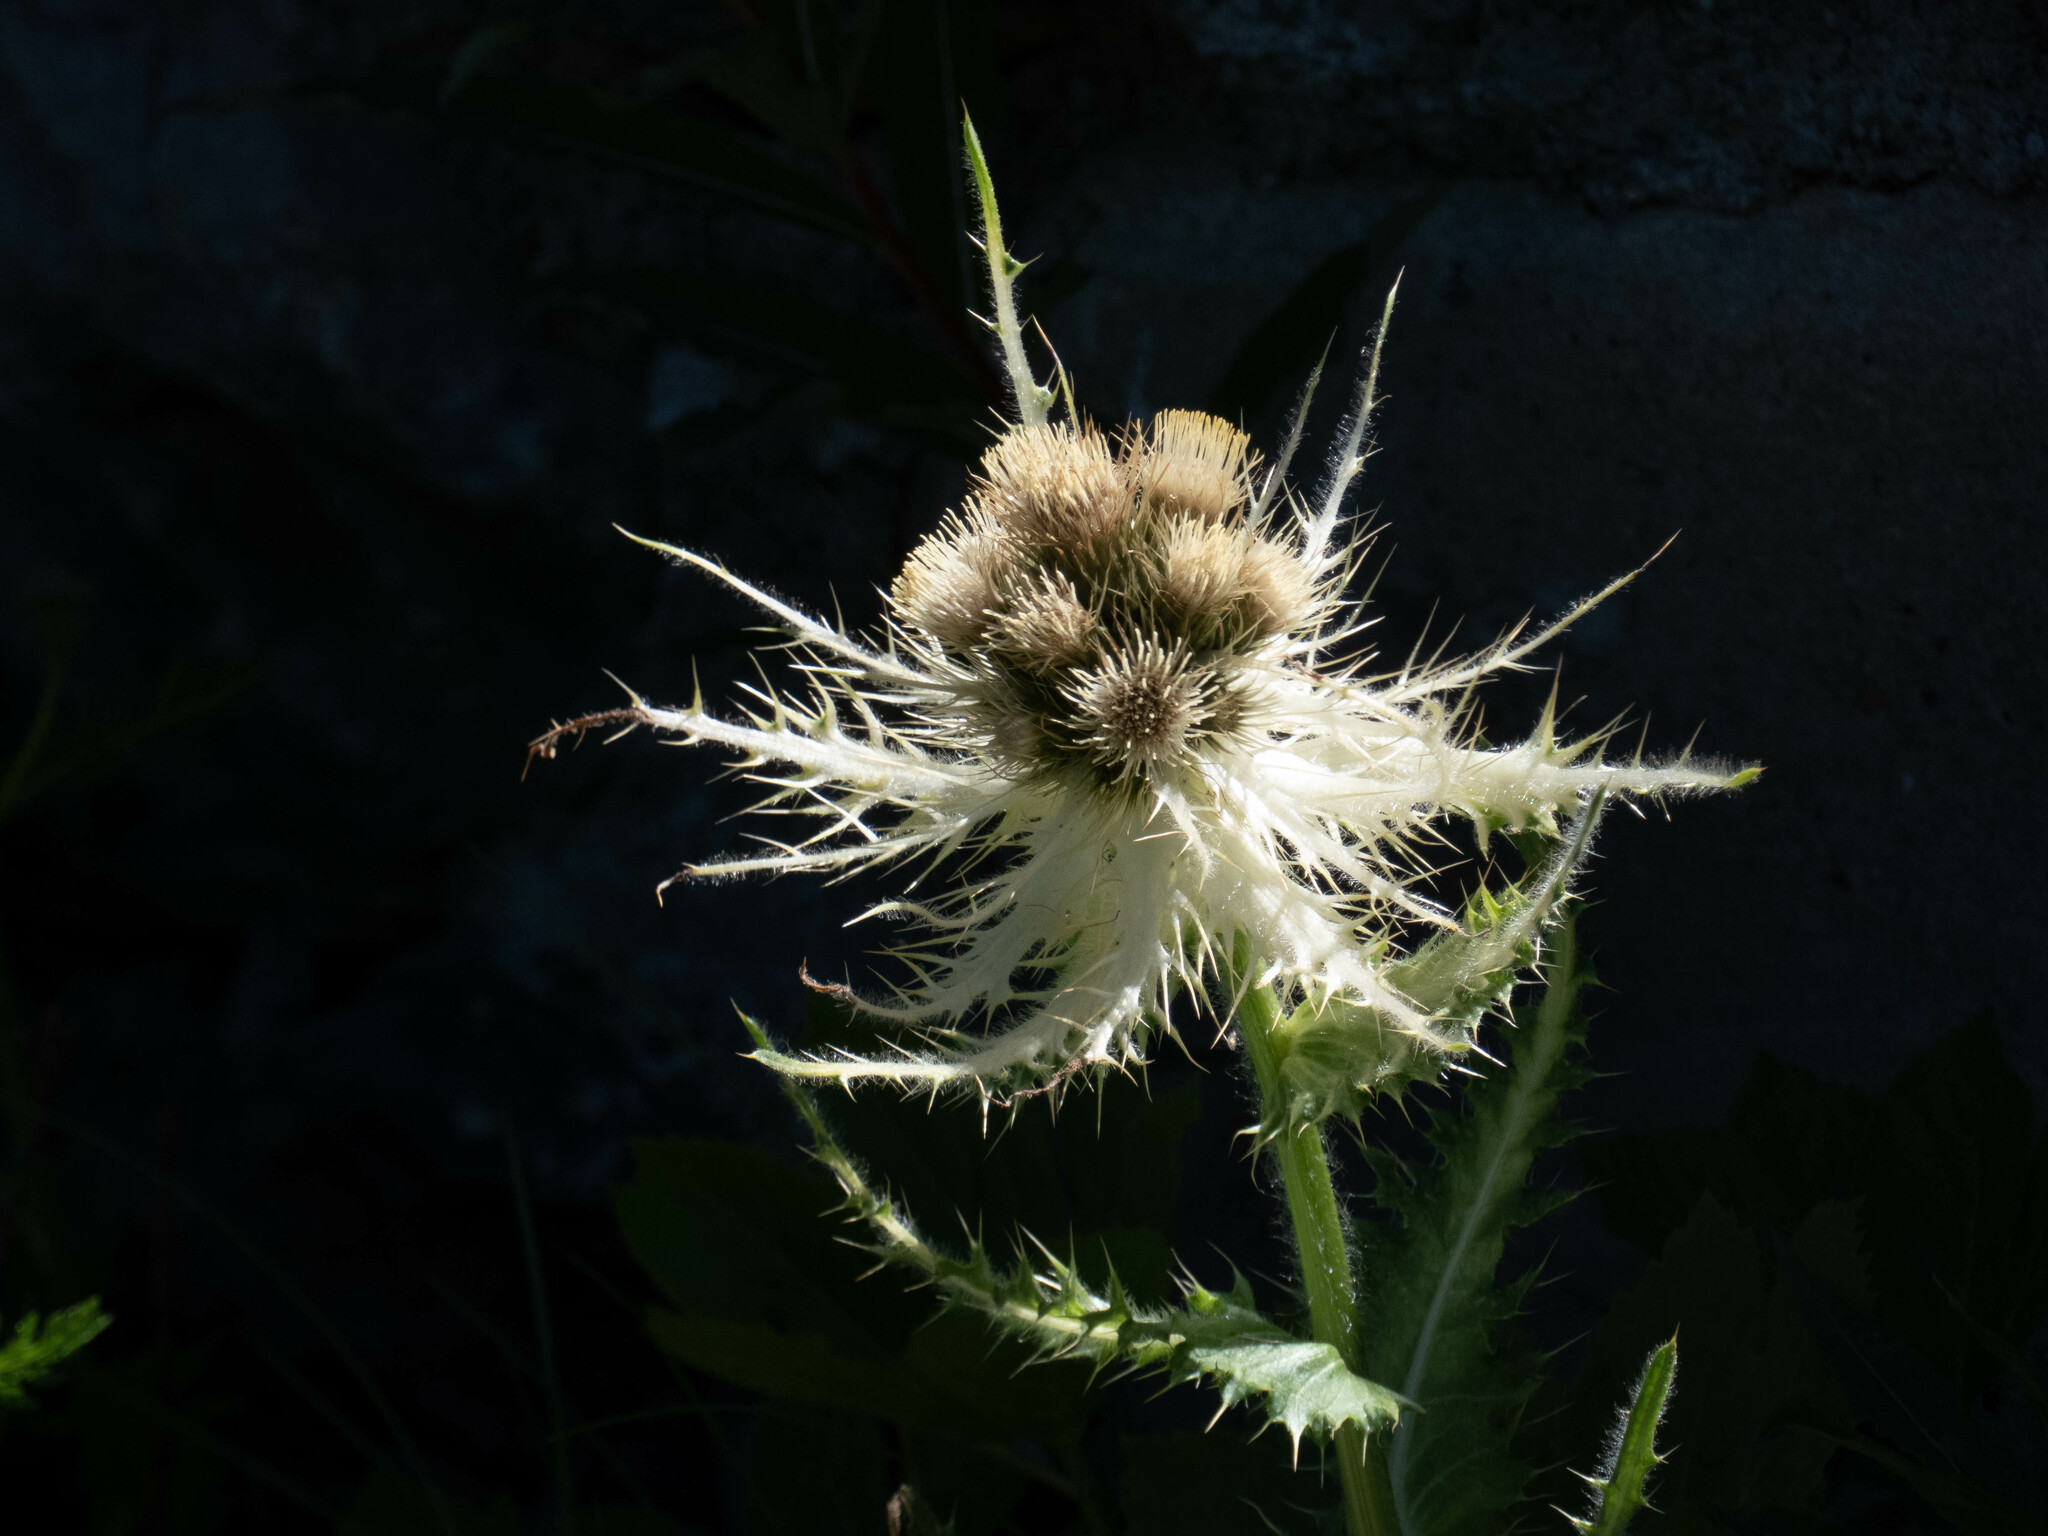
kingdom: Plantae
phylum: Tracheophyta
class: Magnoliopsida
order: Asterales
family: Asteraceae
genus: Cirsium
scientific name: Cirsium spinosissimum
